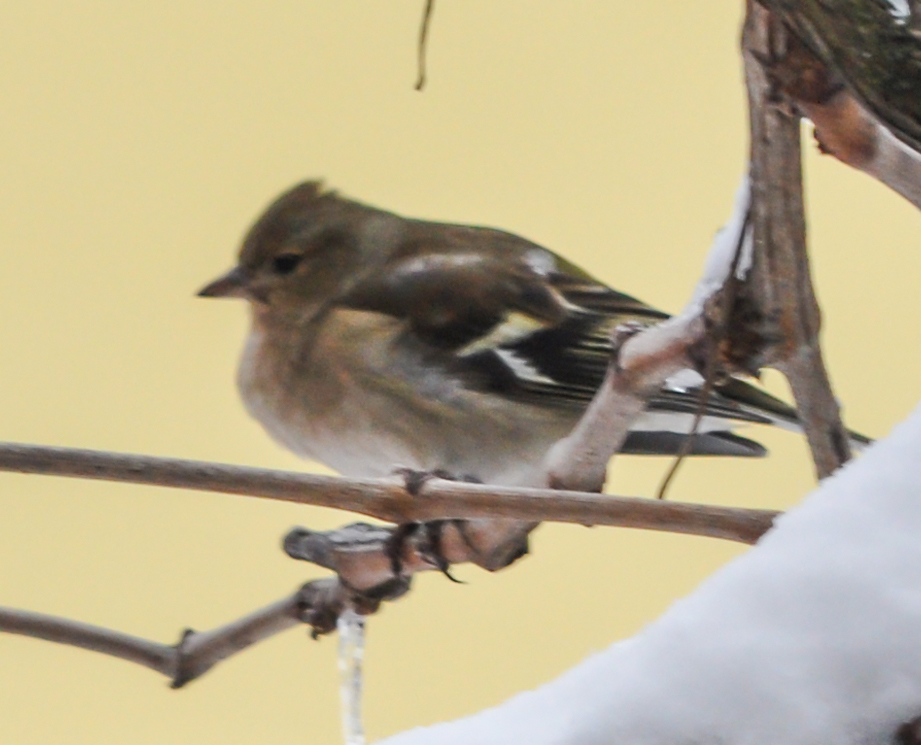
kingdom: Animalia
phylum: Chordata
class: Aves
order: Passeriformes
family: Fringillidae
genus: Fringilla
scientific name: Fringilla coelebs
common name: Common chaffinch
